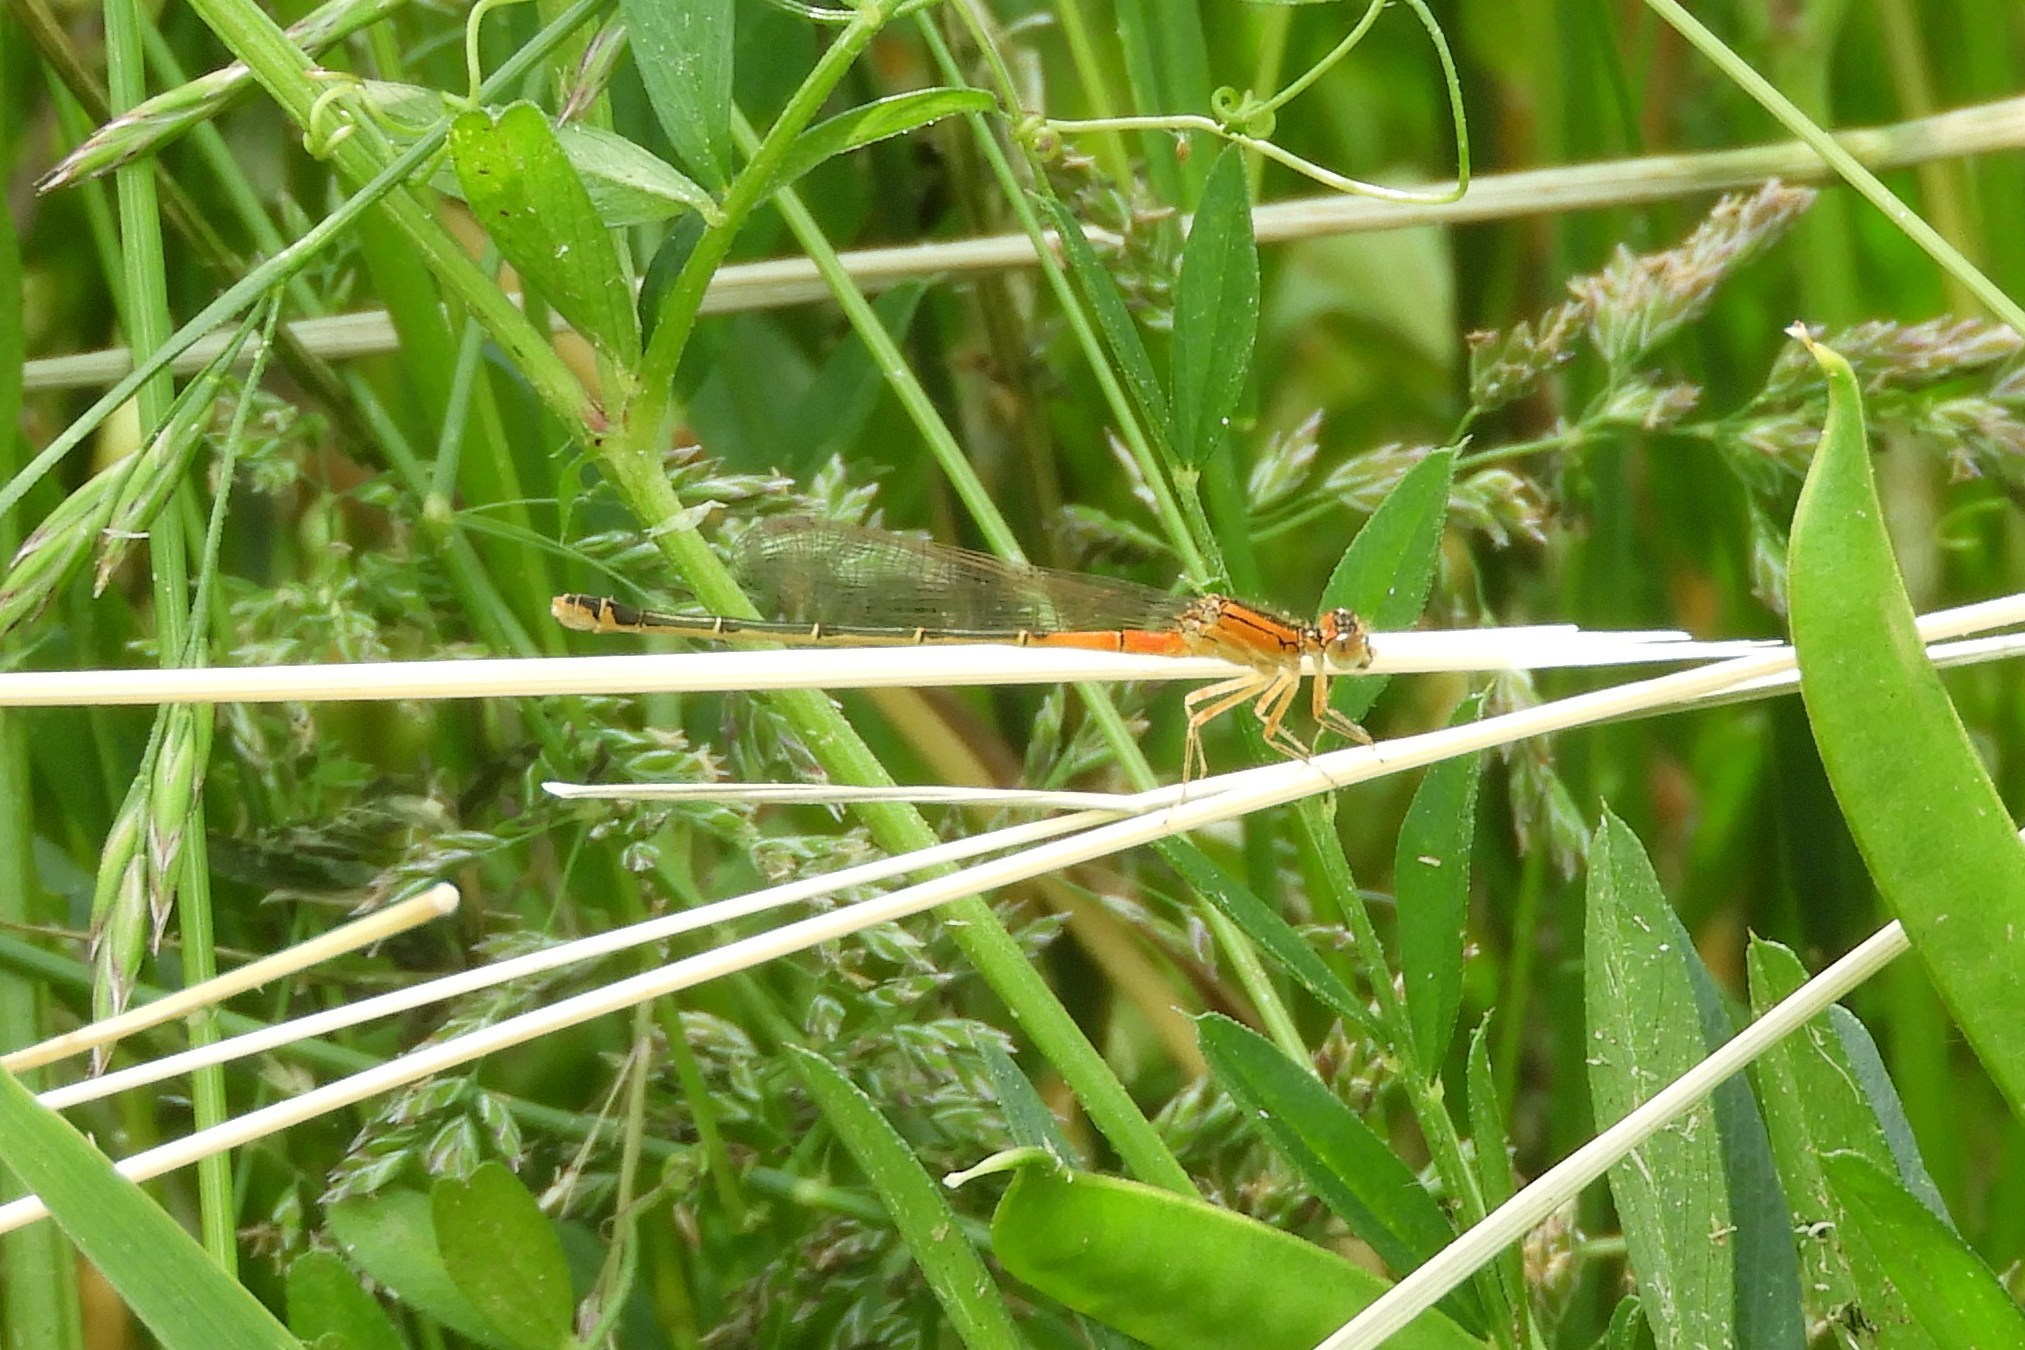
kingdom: Animalia
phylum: Arthropoda
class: Insecta
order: Odonata
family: Coenagrionidae
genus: Ischnura
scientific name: Ischnura verticalis
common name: Eastern forktail
